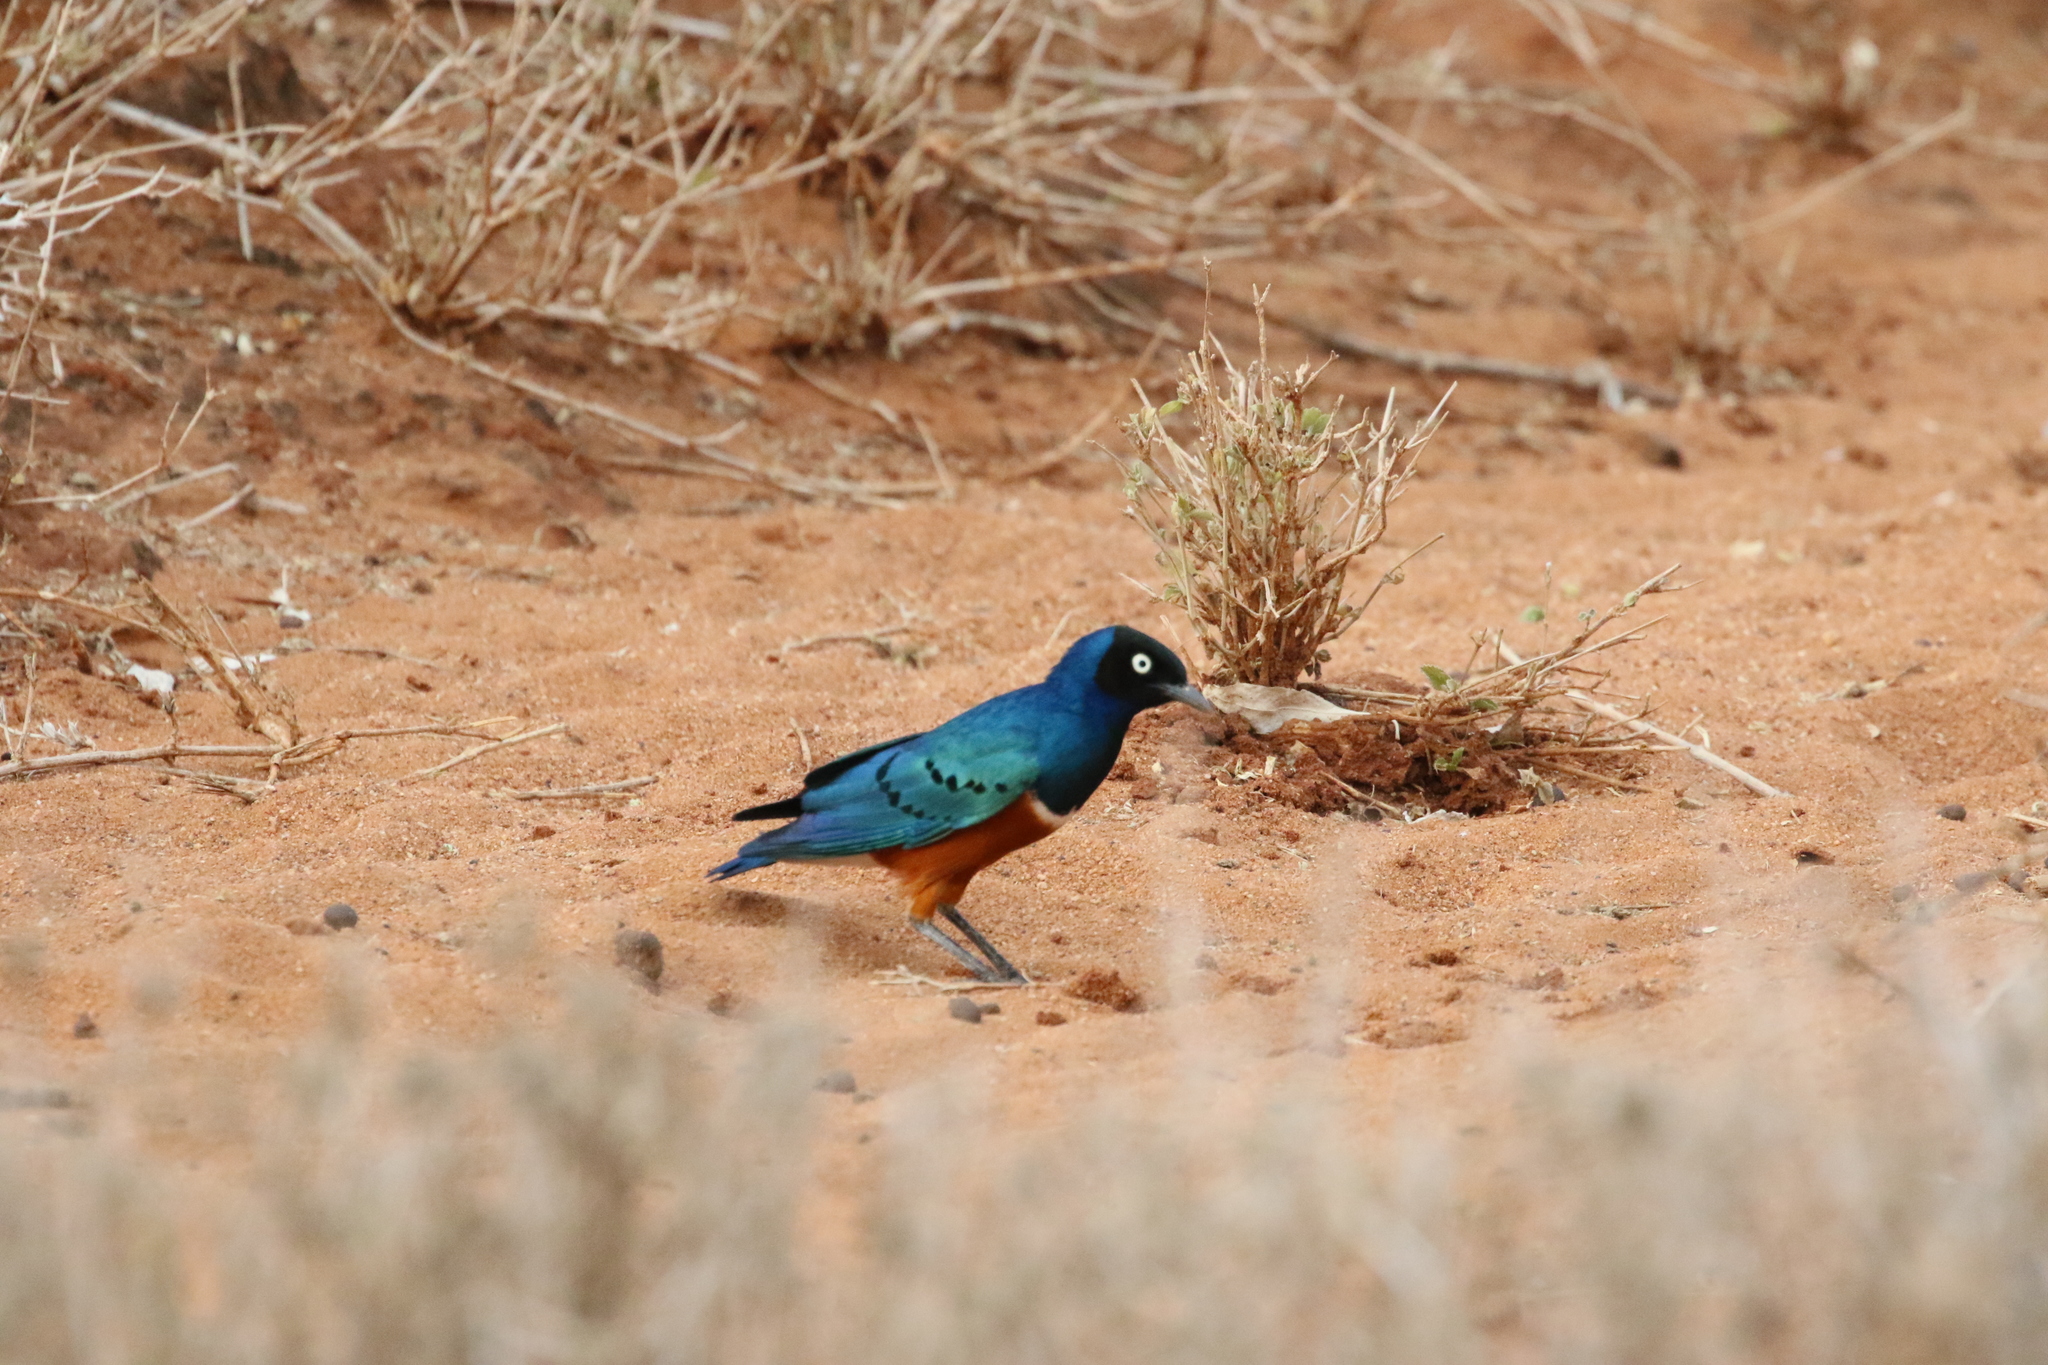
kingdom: Animalia
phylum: Chordata
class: Aves
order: Passeriformes
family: Sturnidae
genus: Lamprotornis
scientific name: Lamprotornis superbus
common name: Superb starling
